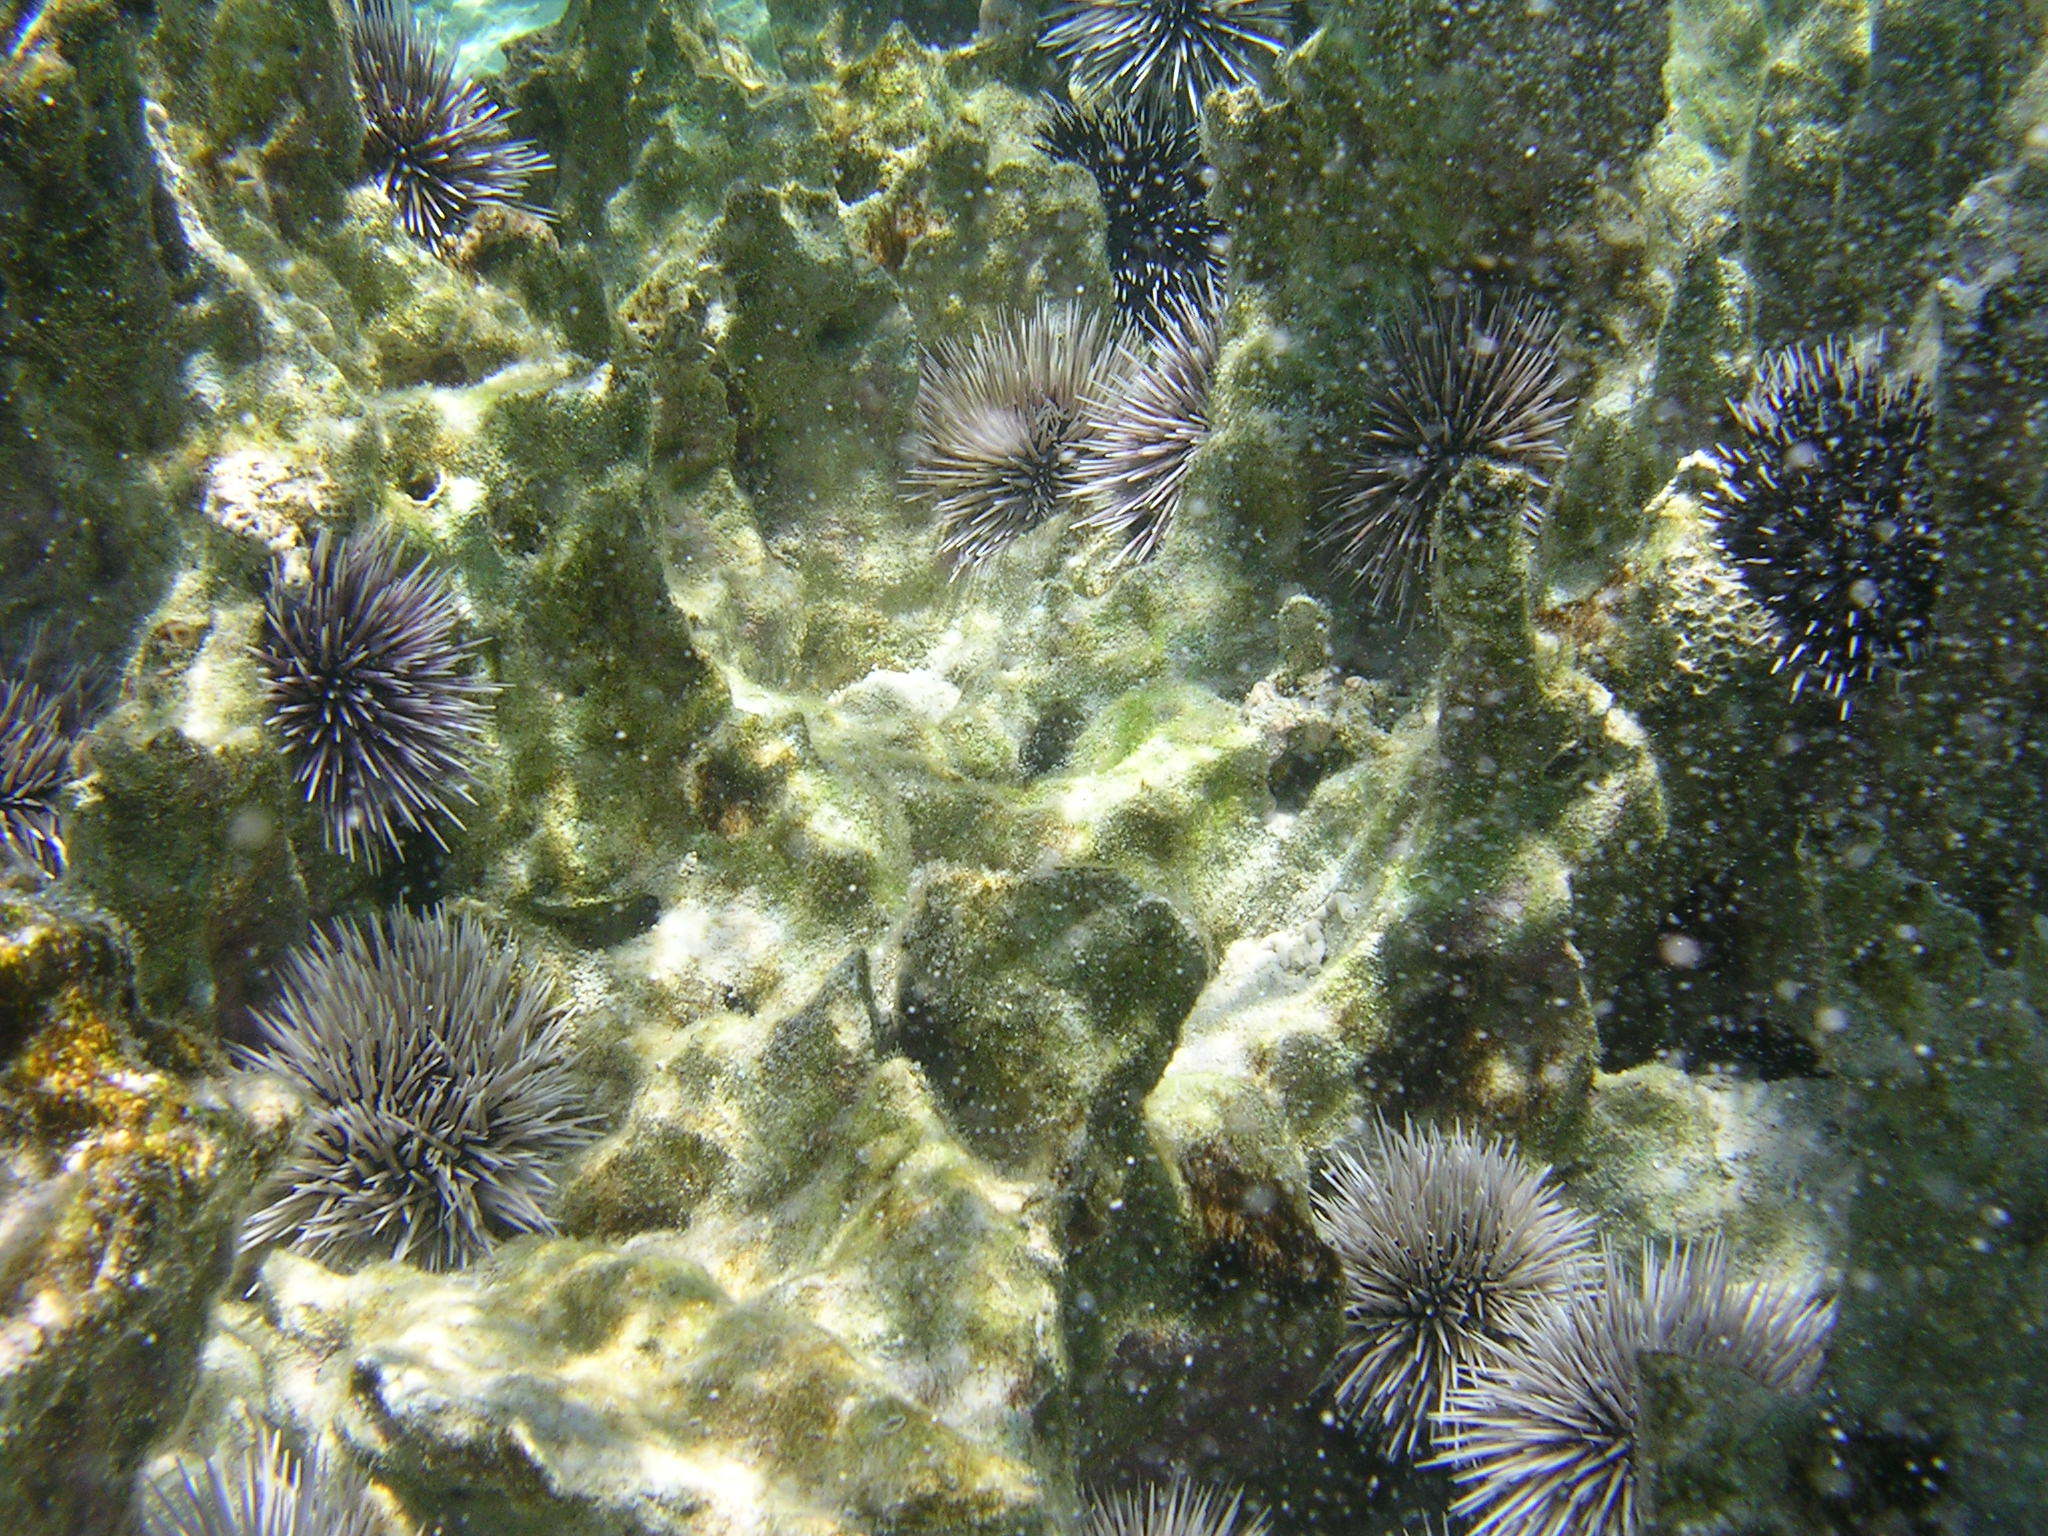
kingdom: Animalia
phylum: Echinodermata
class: Echinoidea
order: Camarodonta
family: Echinometridae
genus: Echinometra
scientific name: Echinometra mathaei
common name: Rock-boring urchin
